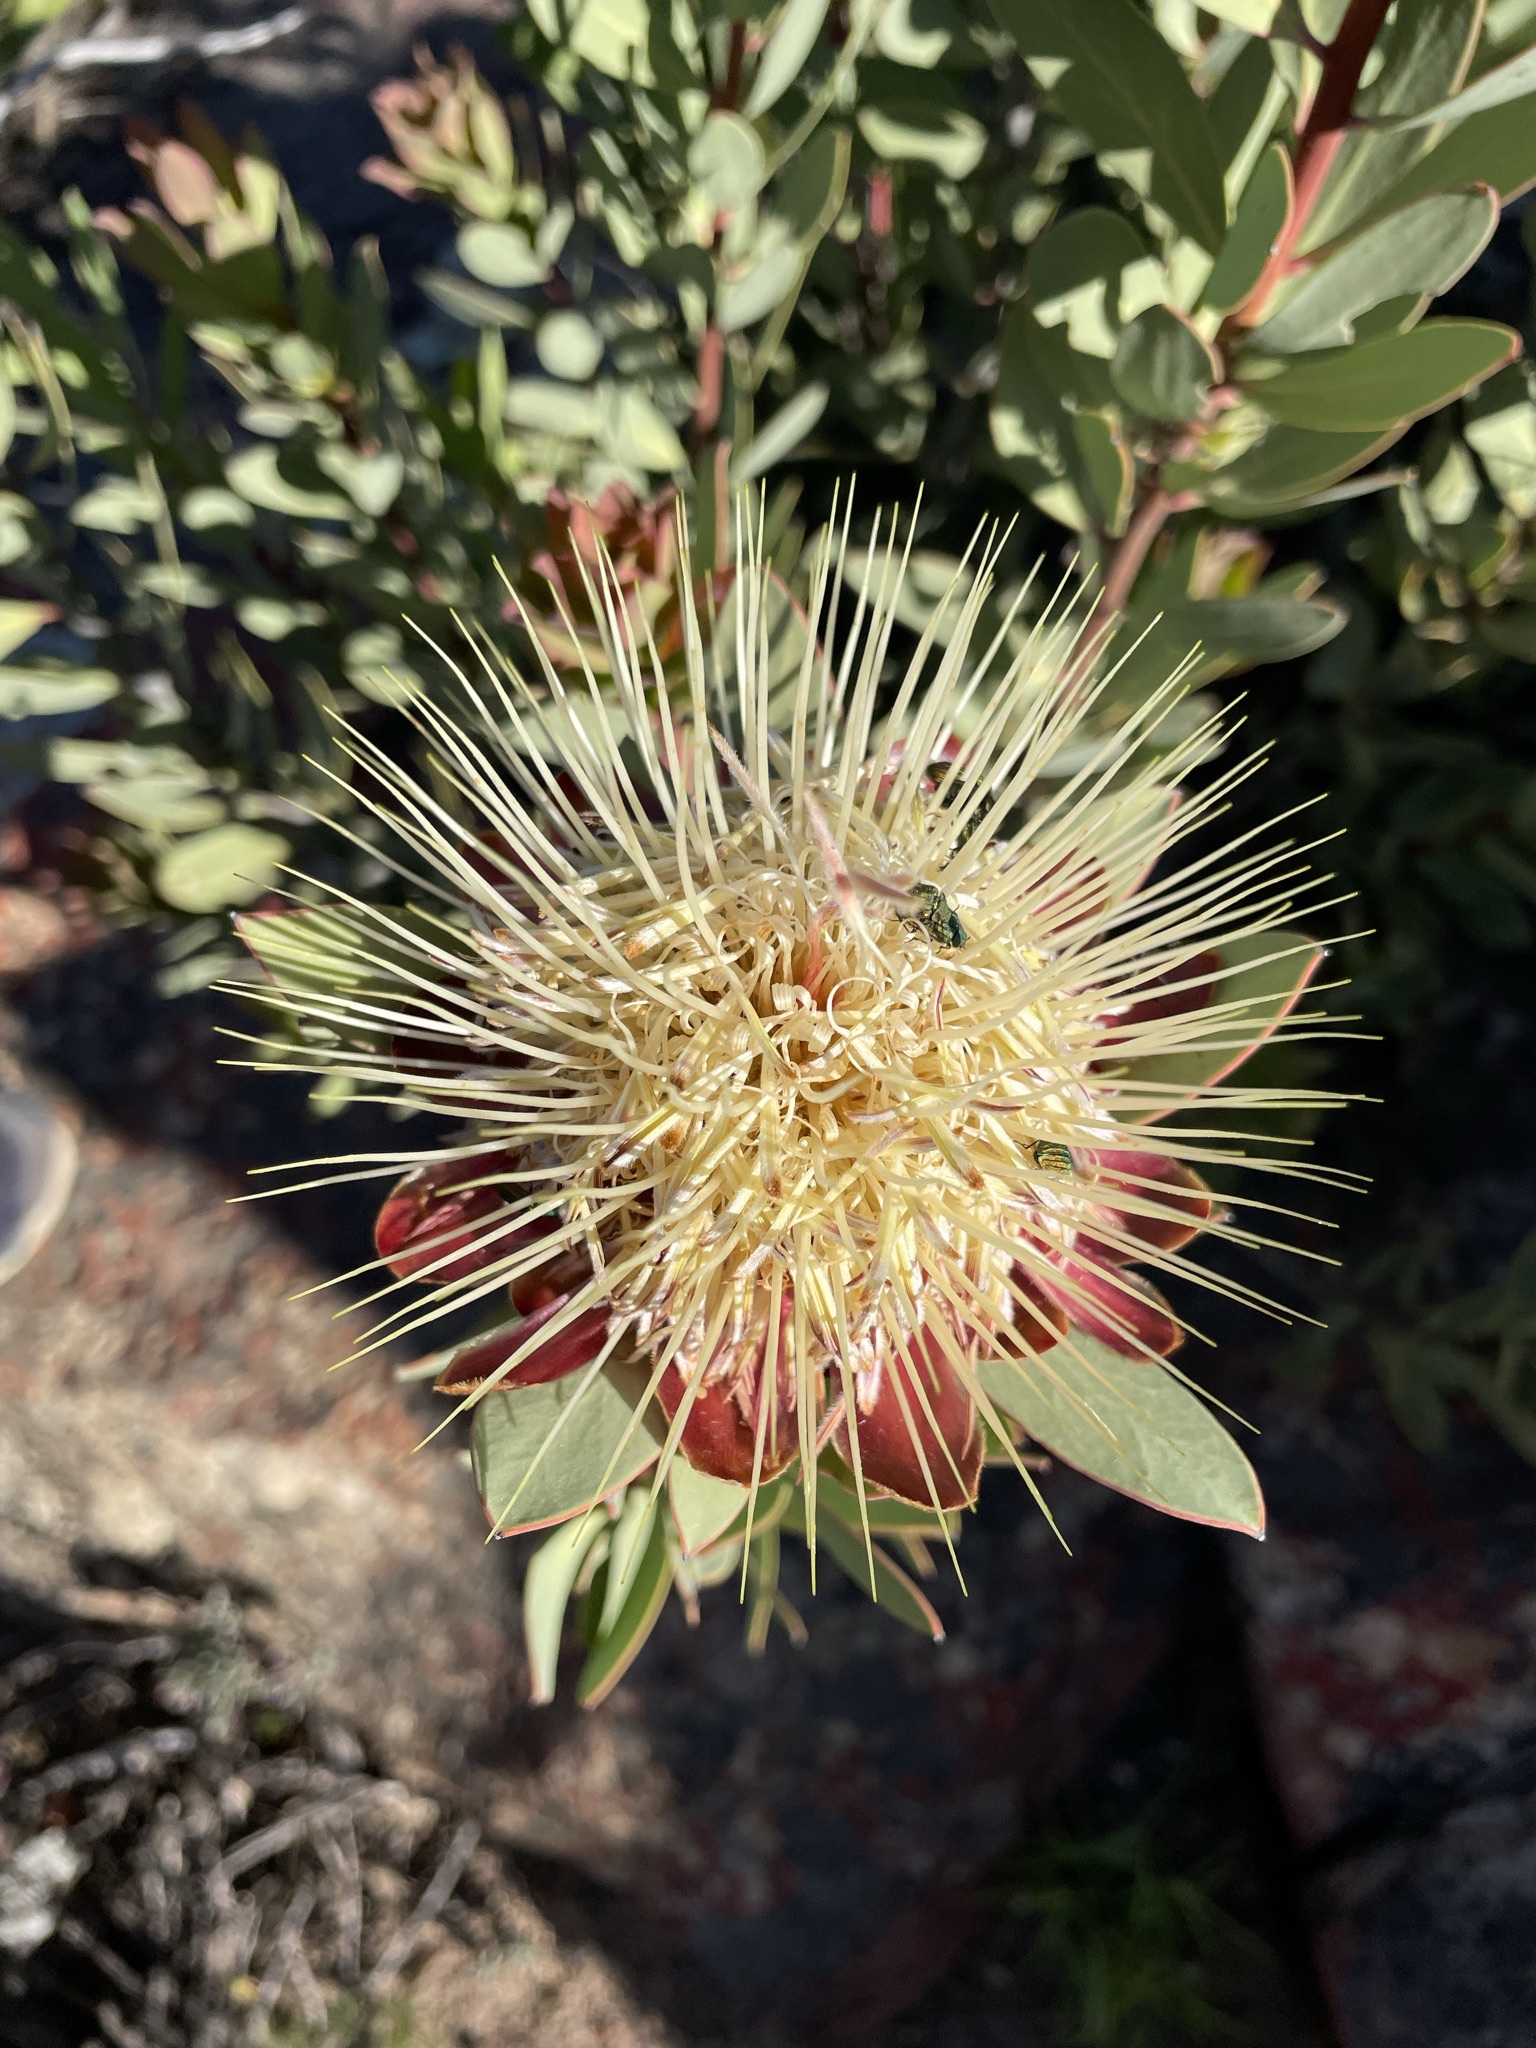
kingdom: Plantae
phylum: Tracheophyta
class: Magnoliopsida
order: Proteales
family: Proteaceae
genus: Protea
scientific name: Protea glabra
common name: Chestnut sugarbush
